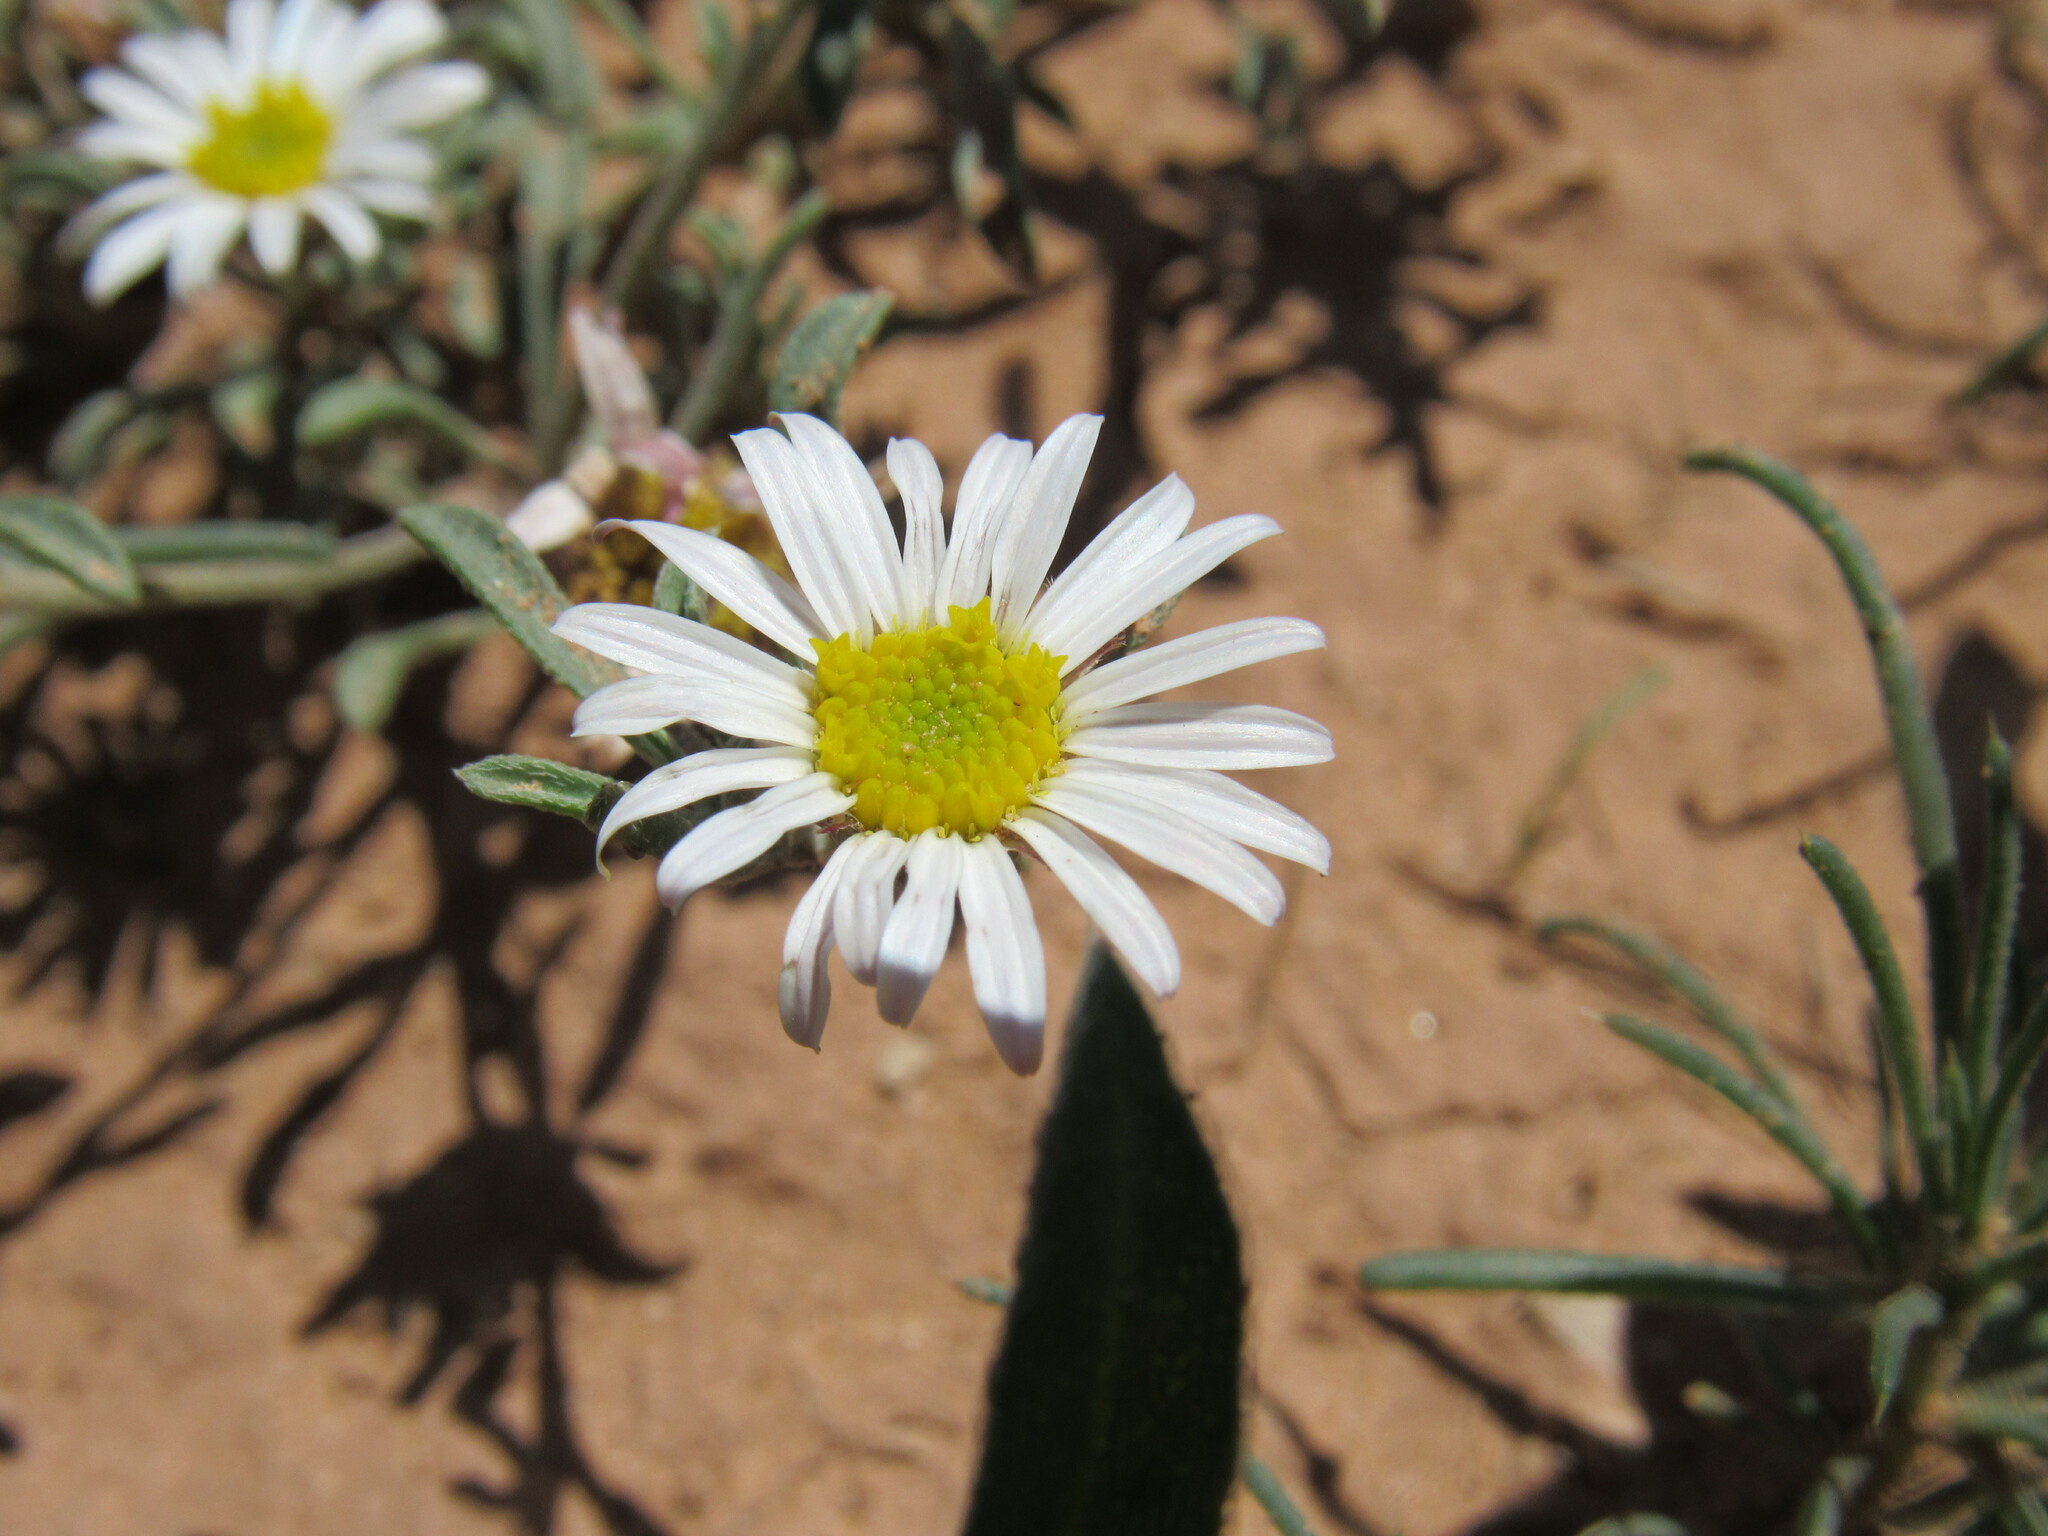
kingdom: Plantae
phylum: Tracheophyta
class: Magnoliopsida
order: Asterales
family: Asteraceae
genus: Townsendia
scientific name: Townsendia annua
